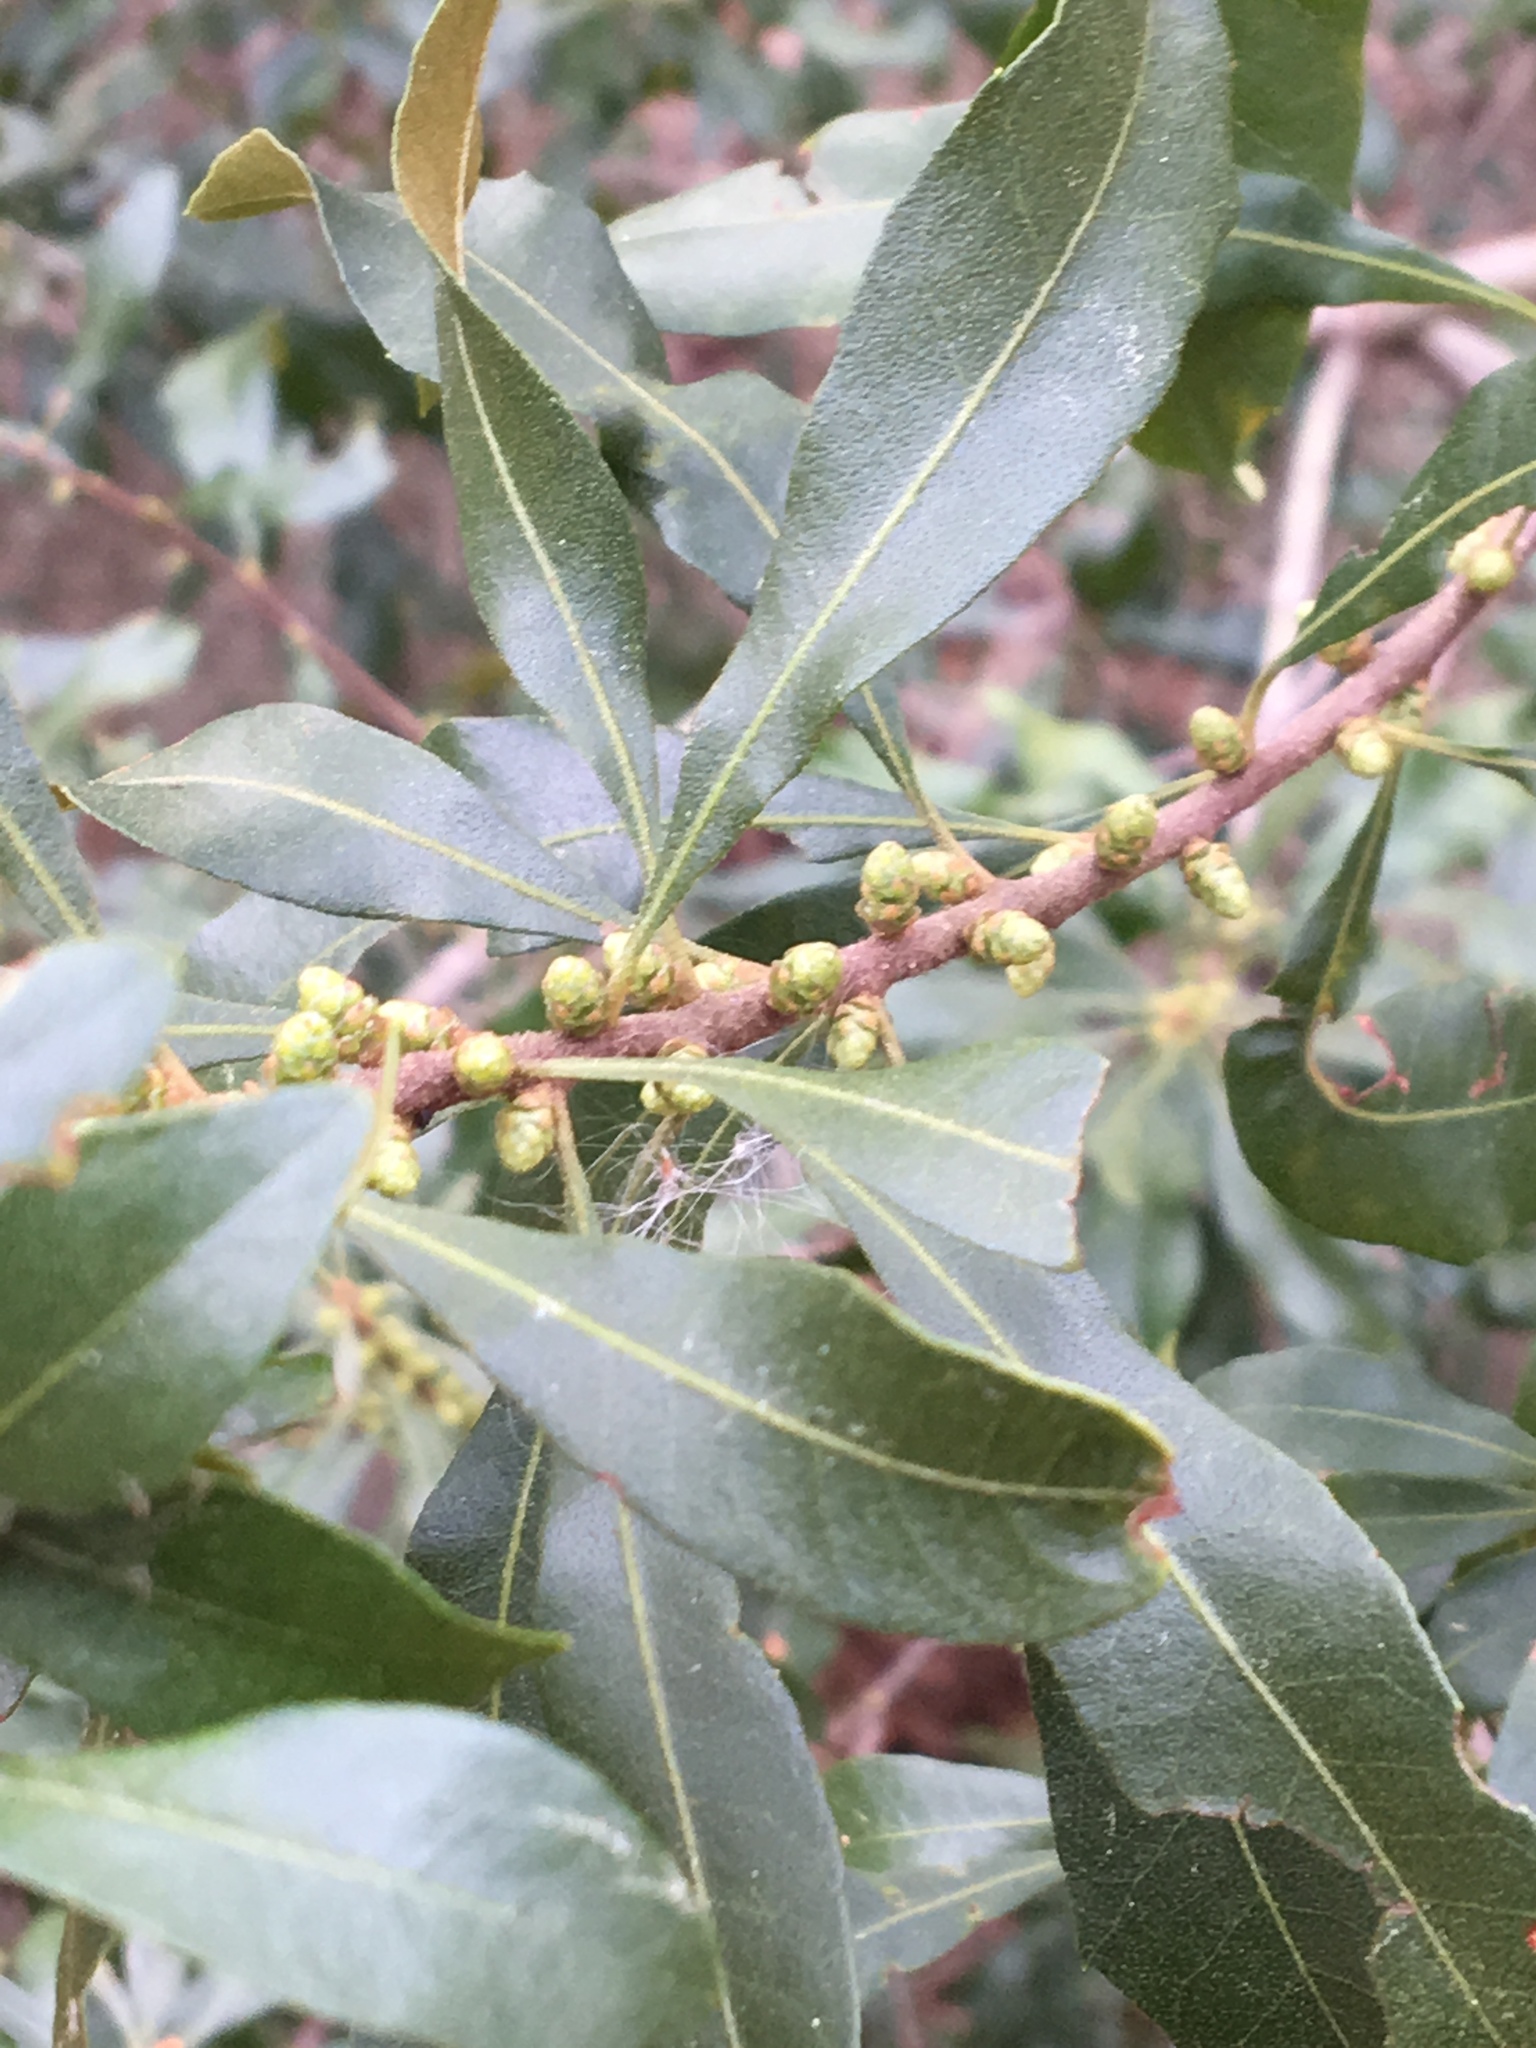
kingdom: Plantae
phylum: Tracheophyta
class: Magnoliopsida
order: Fagales
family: Myricaceae
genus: Morella
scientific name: Morella cerifera
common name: Wax myrtle
